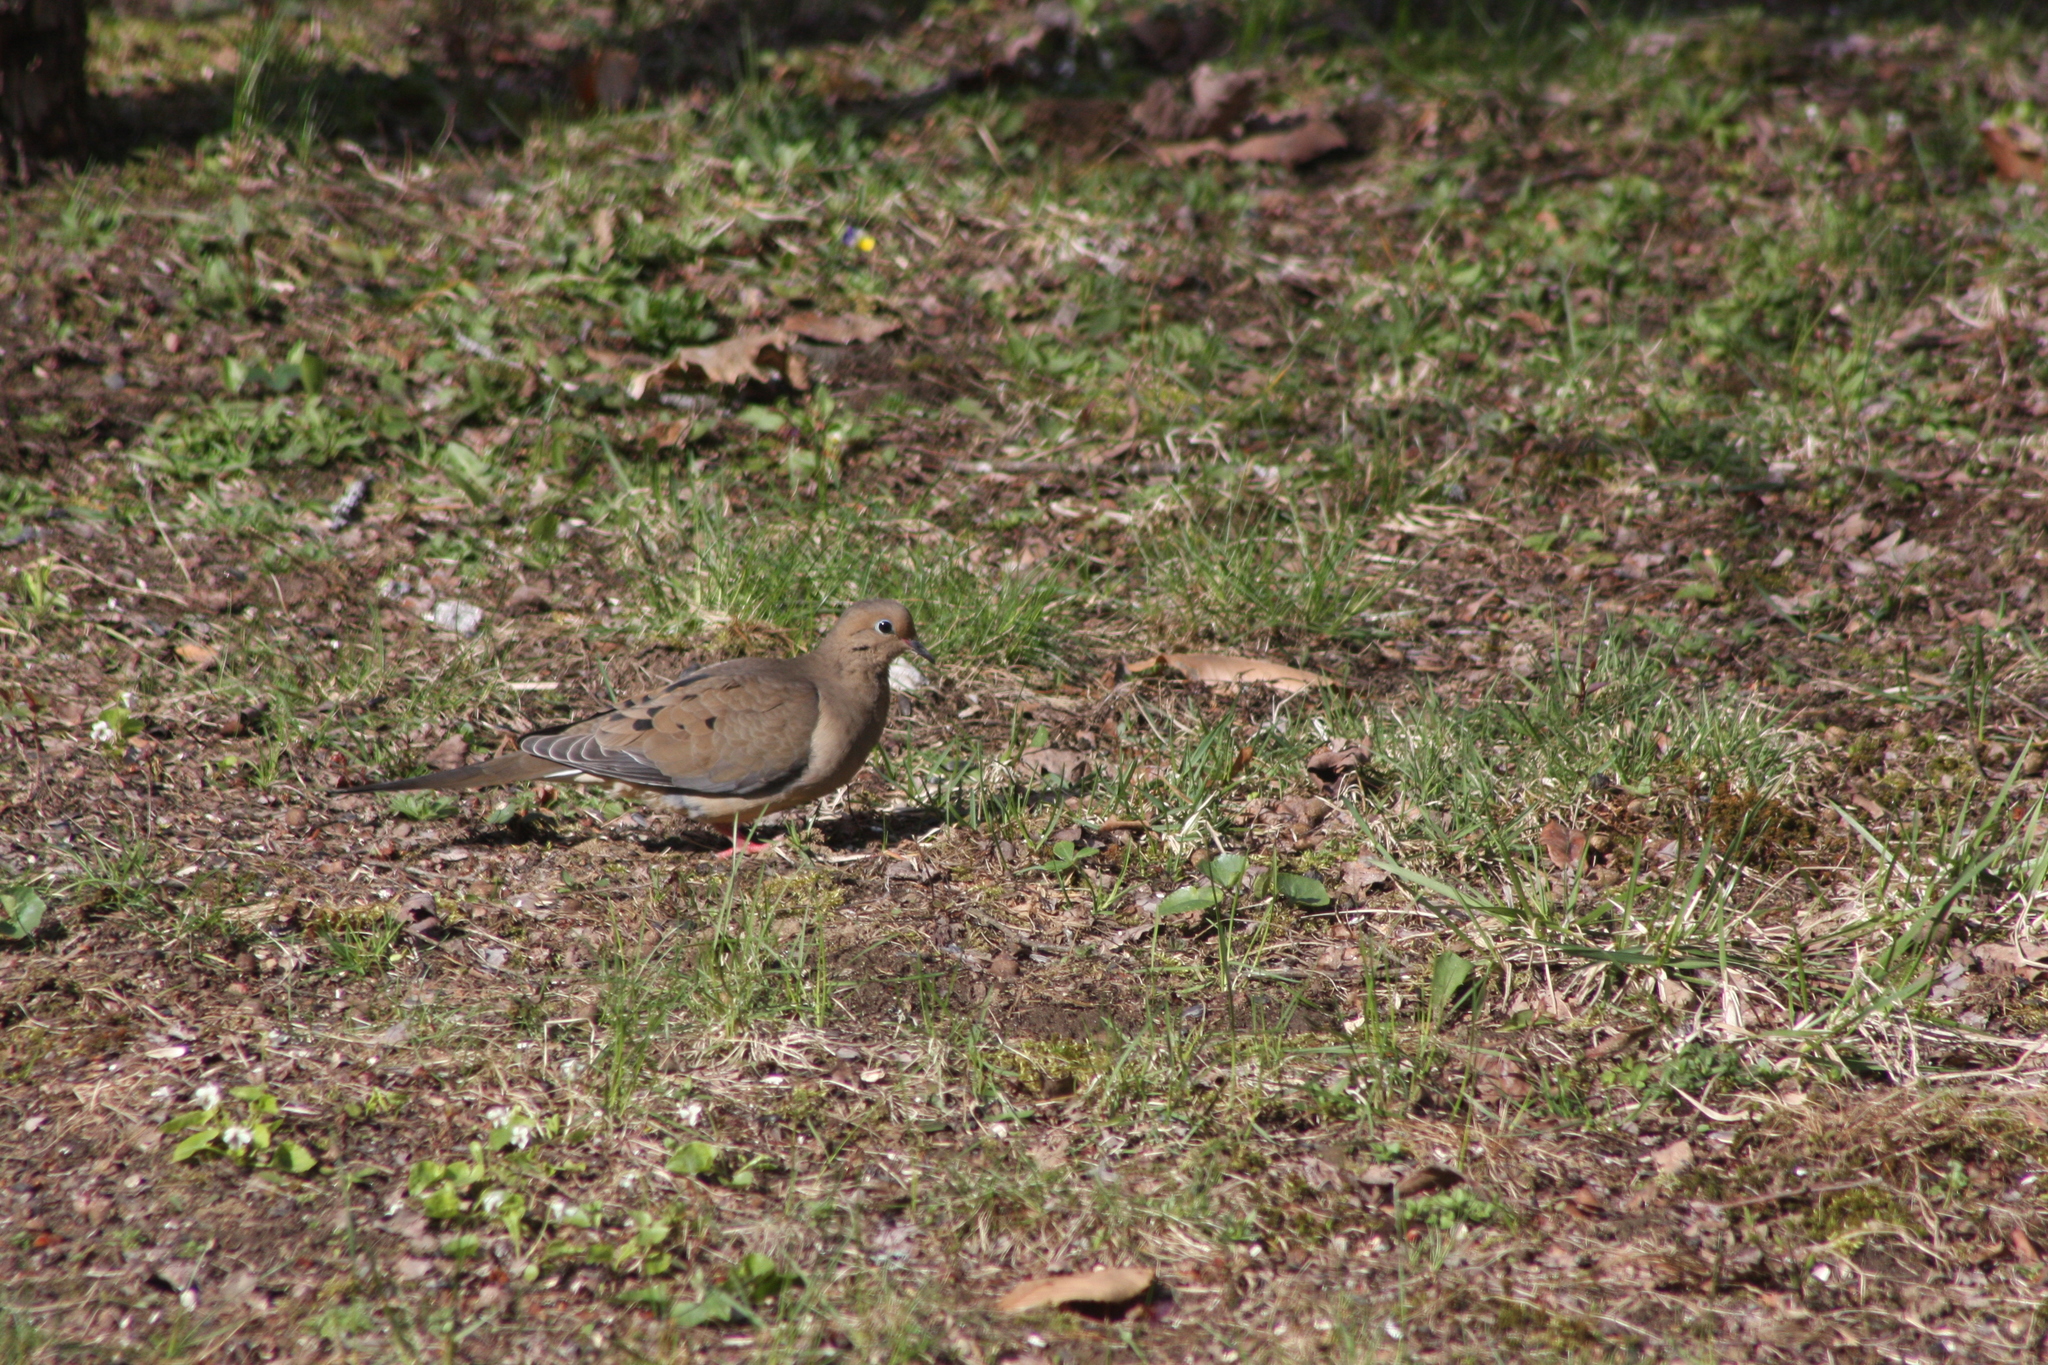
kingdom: Animalia
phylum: Chordata
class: Aves
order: Columbiformes
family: Columbidae
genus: Zenaida
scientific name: Zenaida macroura
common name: Mourning dove
